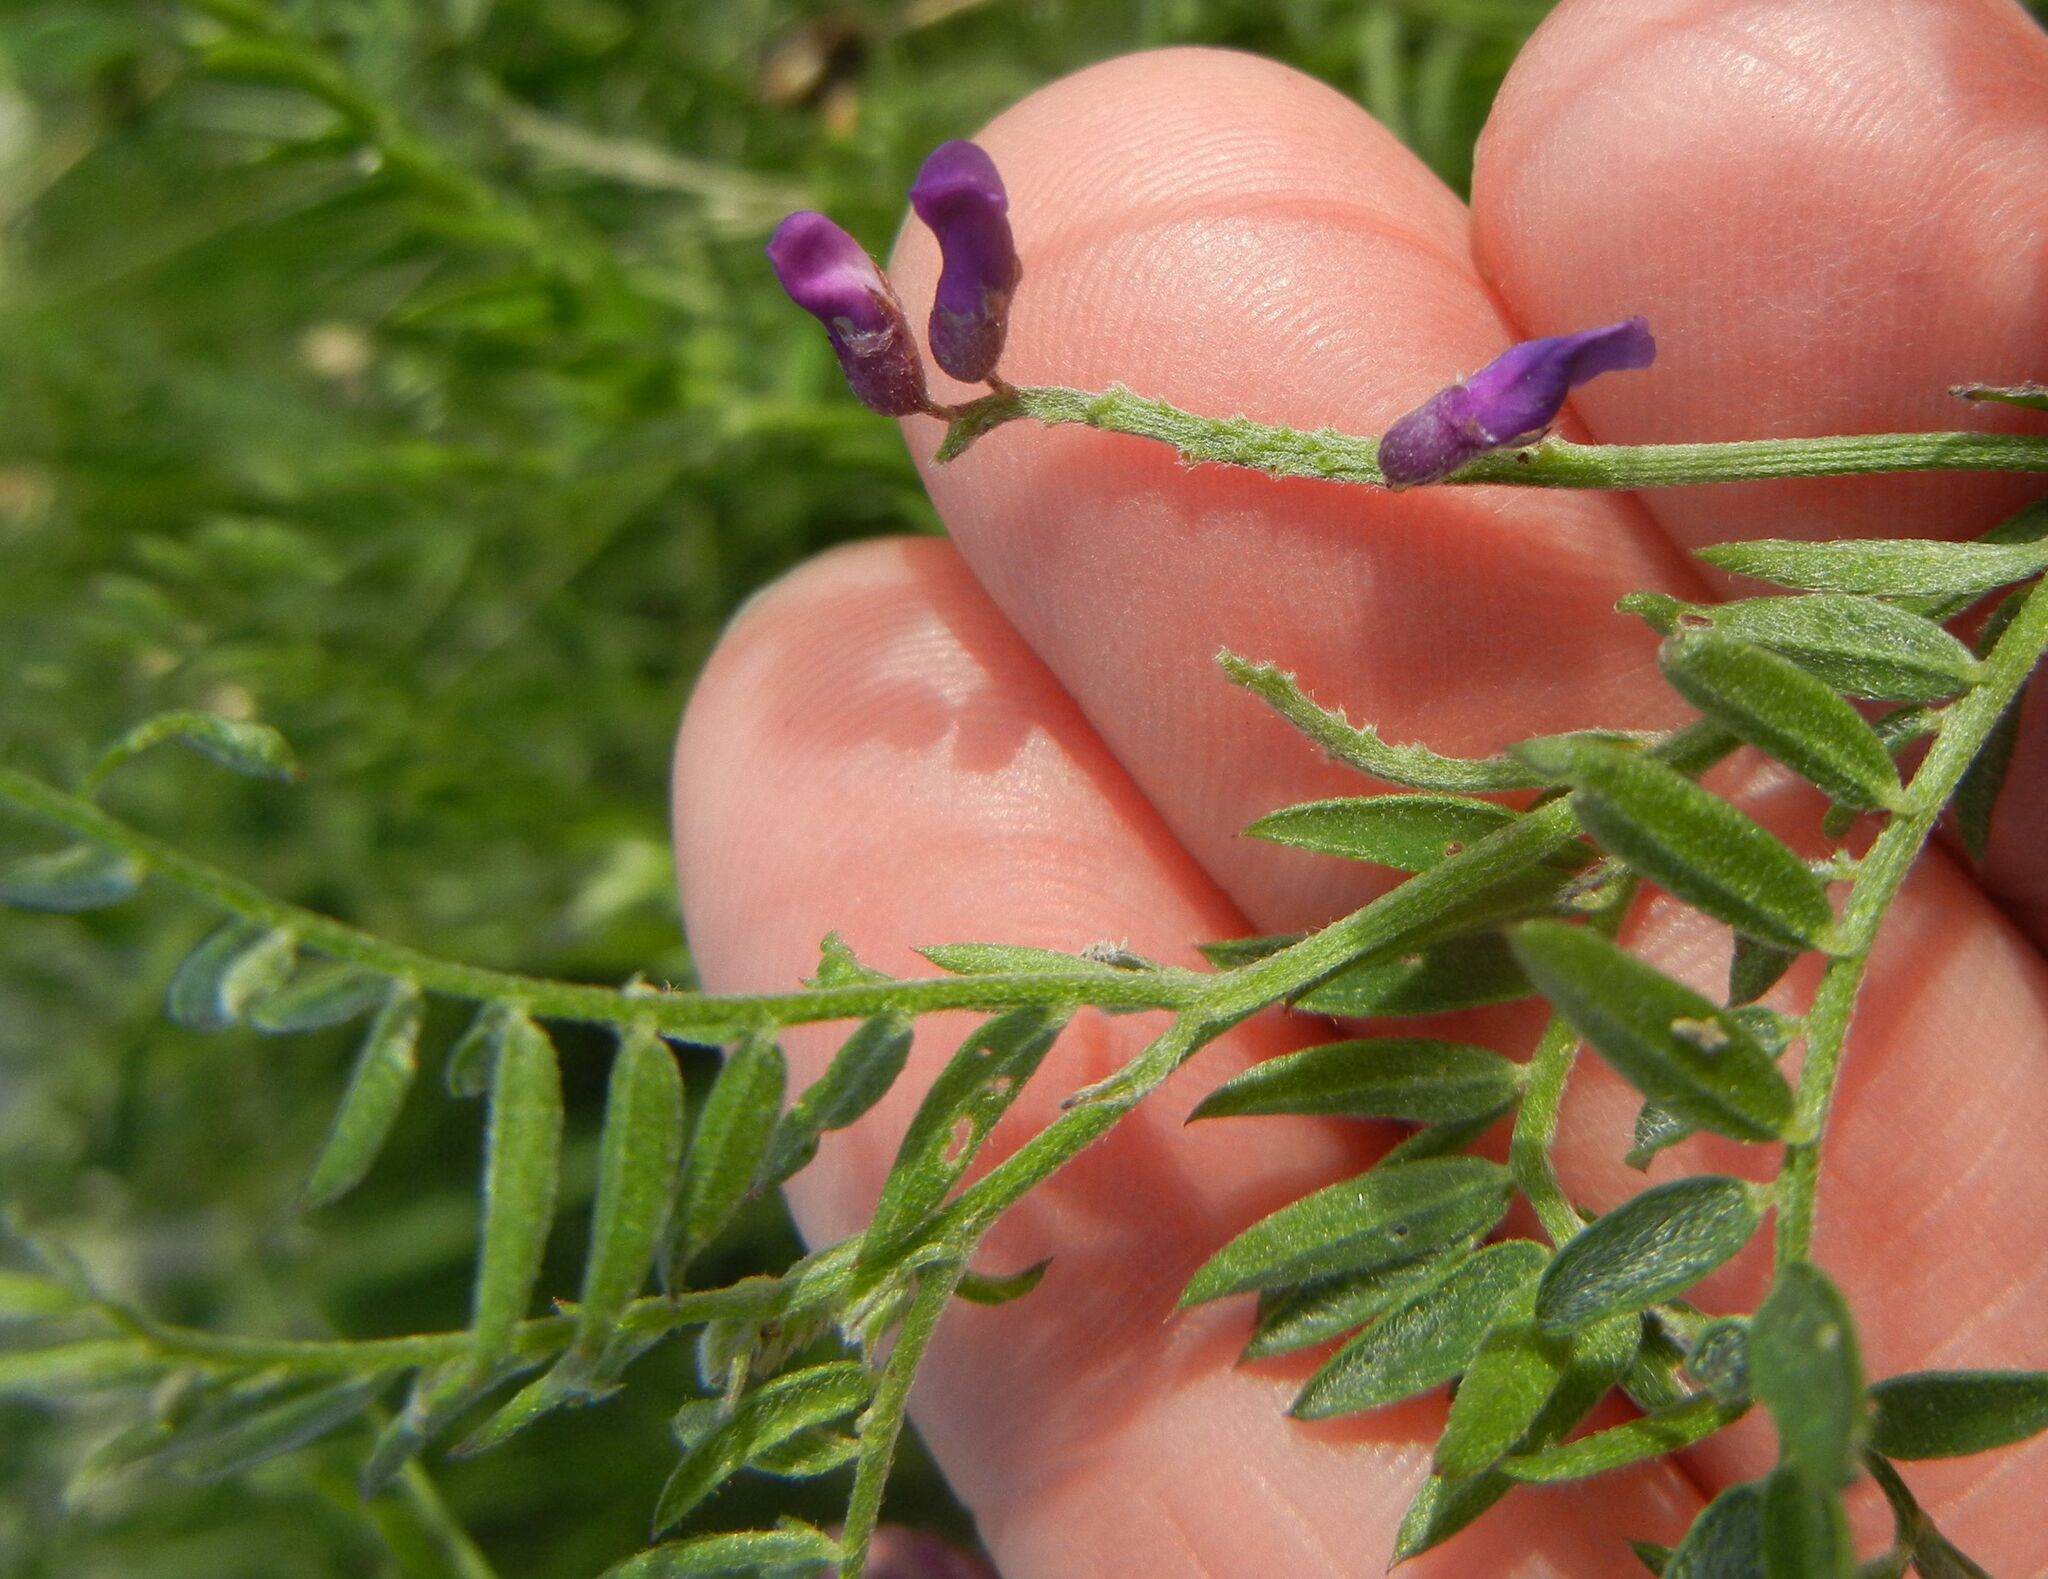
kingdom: Plantae
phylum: Tracheophyta
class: Magnoliopsida
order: Fabales
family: Fabaceae
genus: Vicia
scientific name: Vicia cracca
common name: Bird vetch
